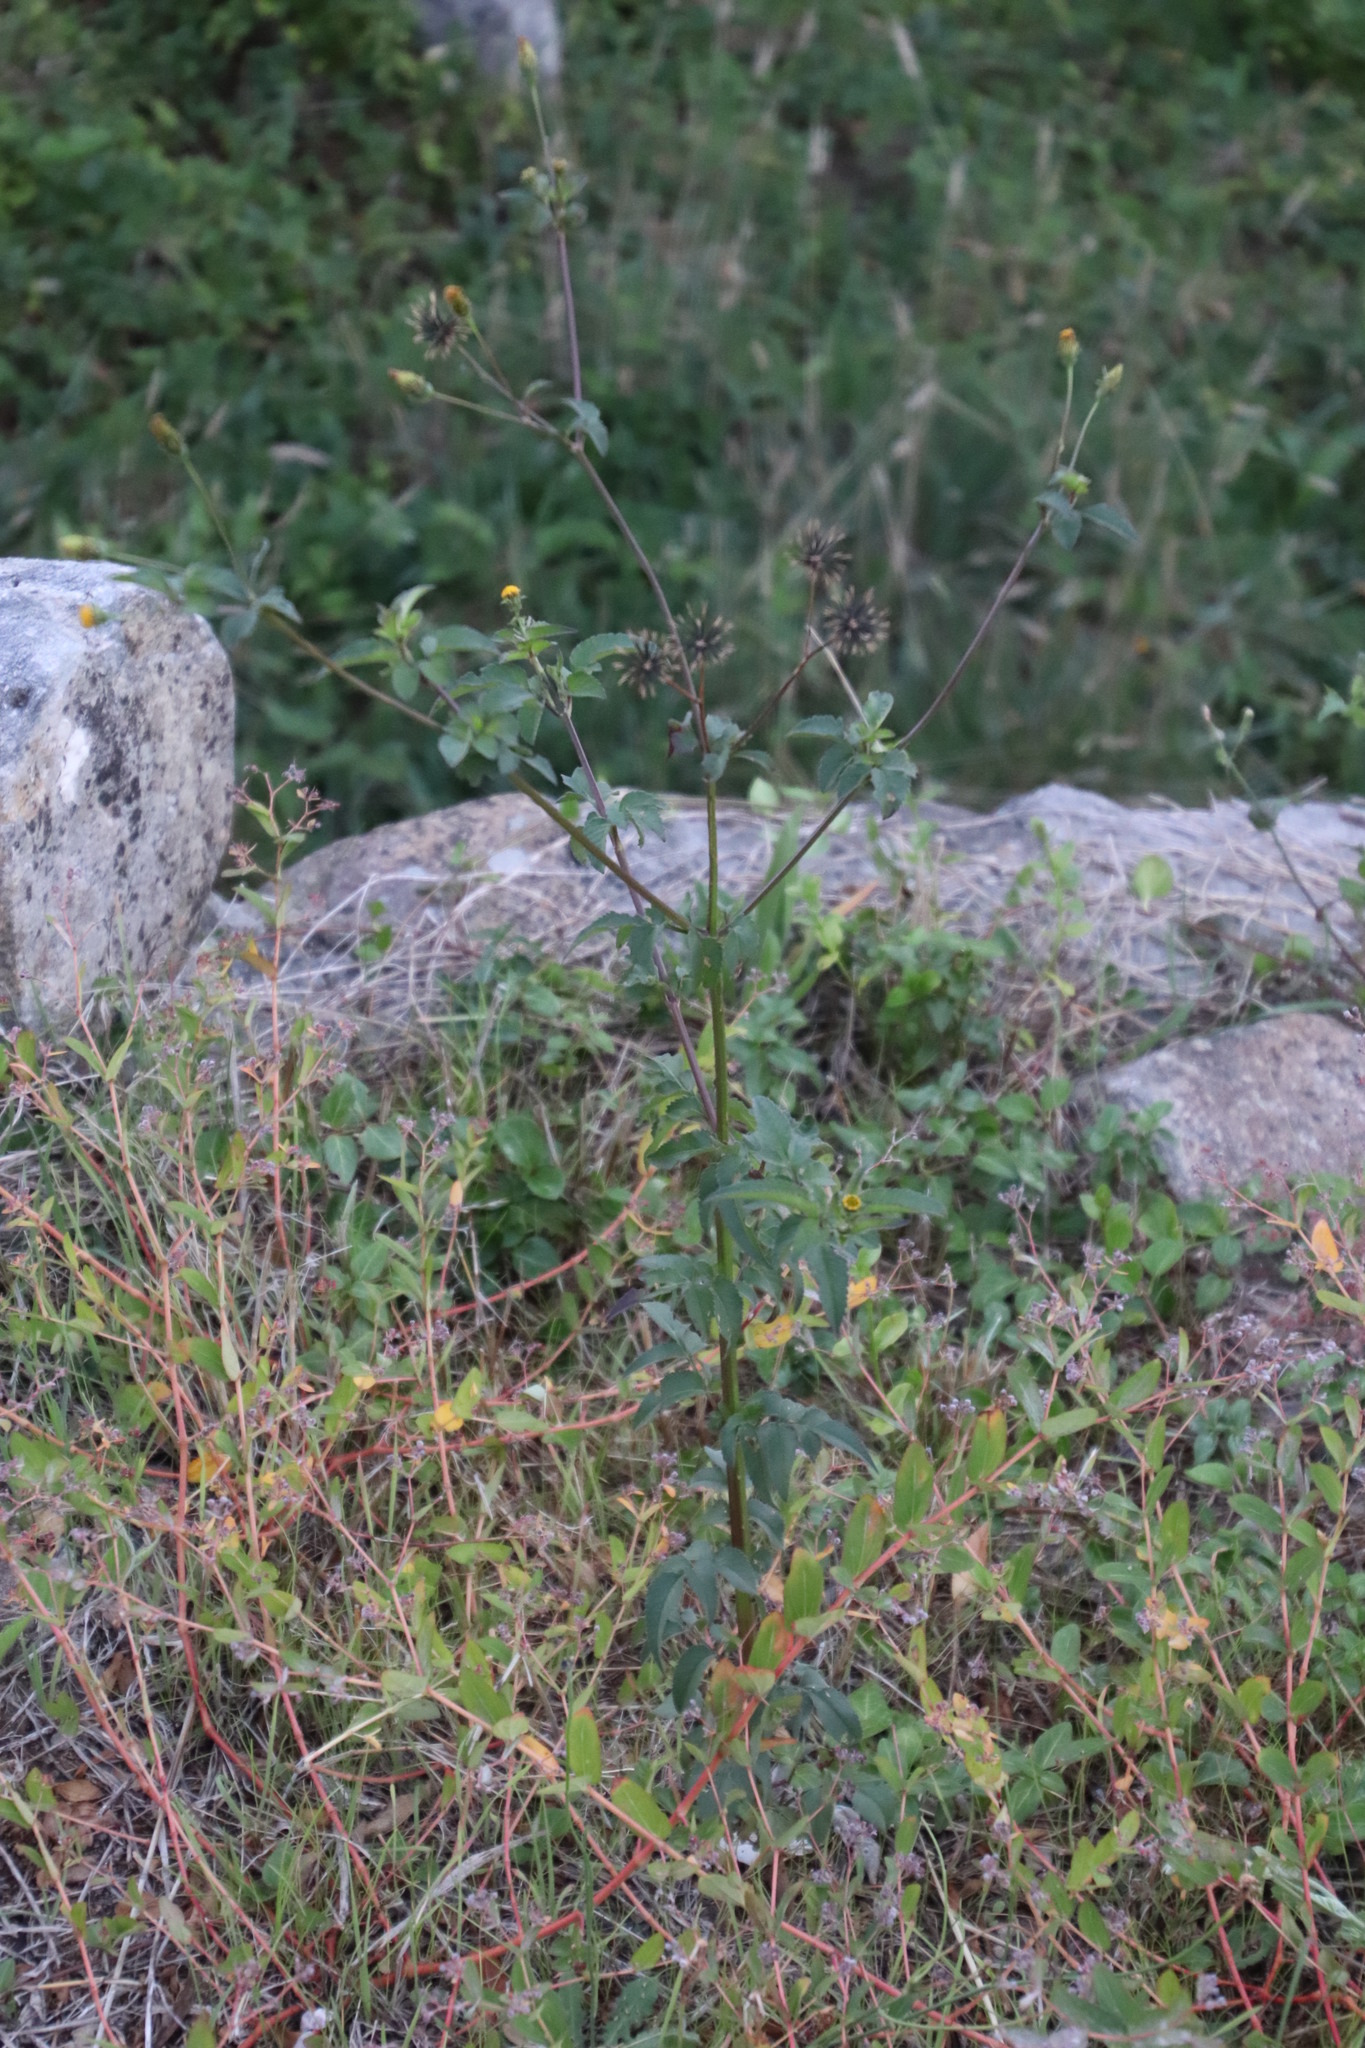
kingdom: Plantae
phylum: Tracheophyta
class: Magnoliopsida
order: Asterales
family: Asteraceae
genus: Bidens
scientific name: Bidens pilosa
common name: Black-jack
